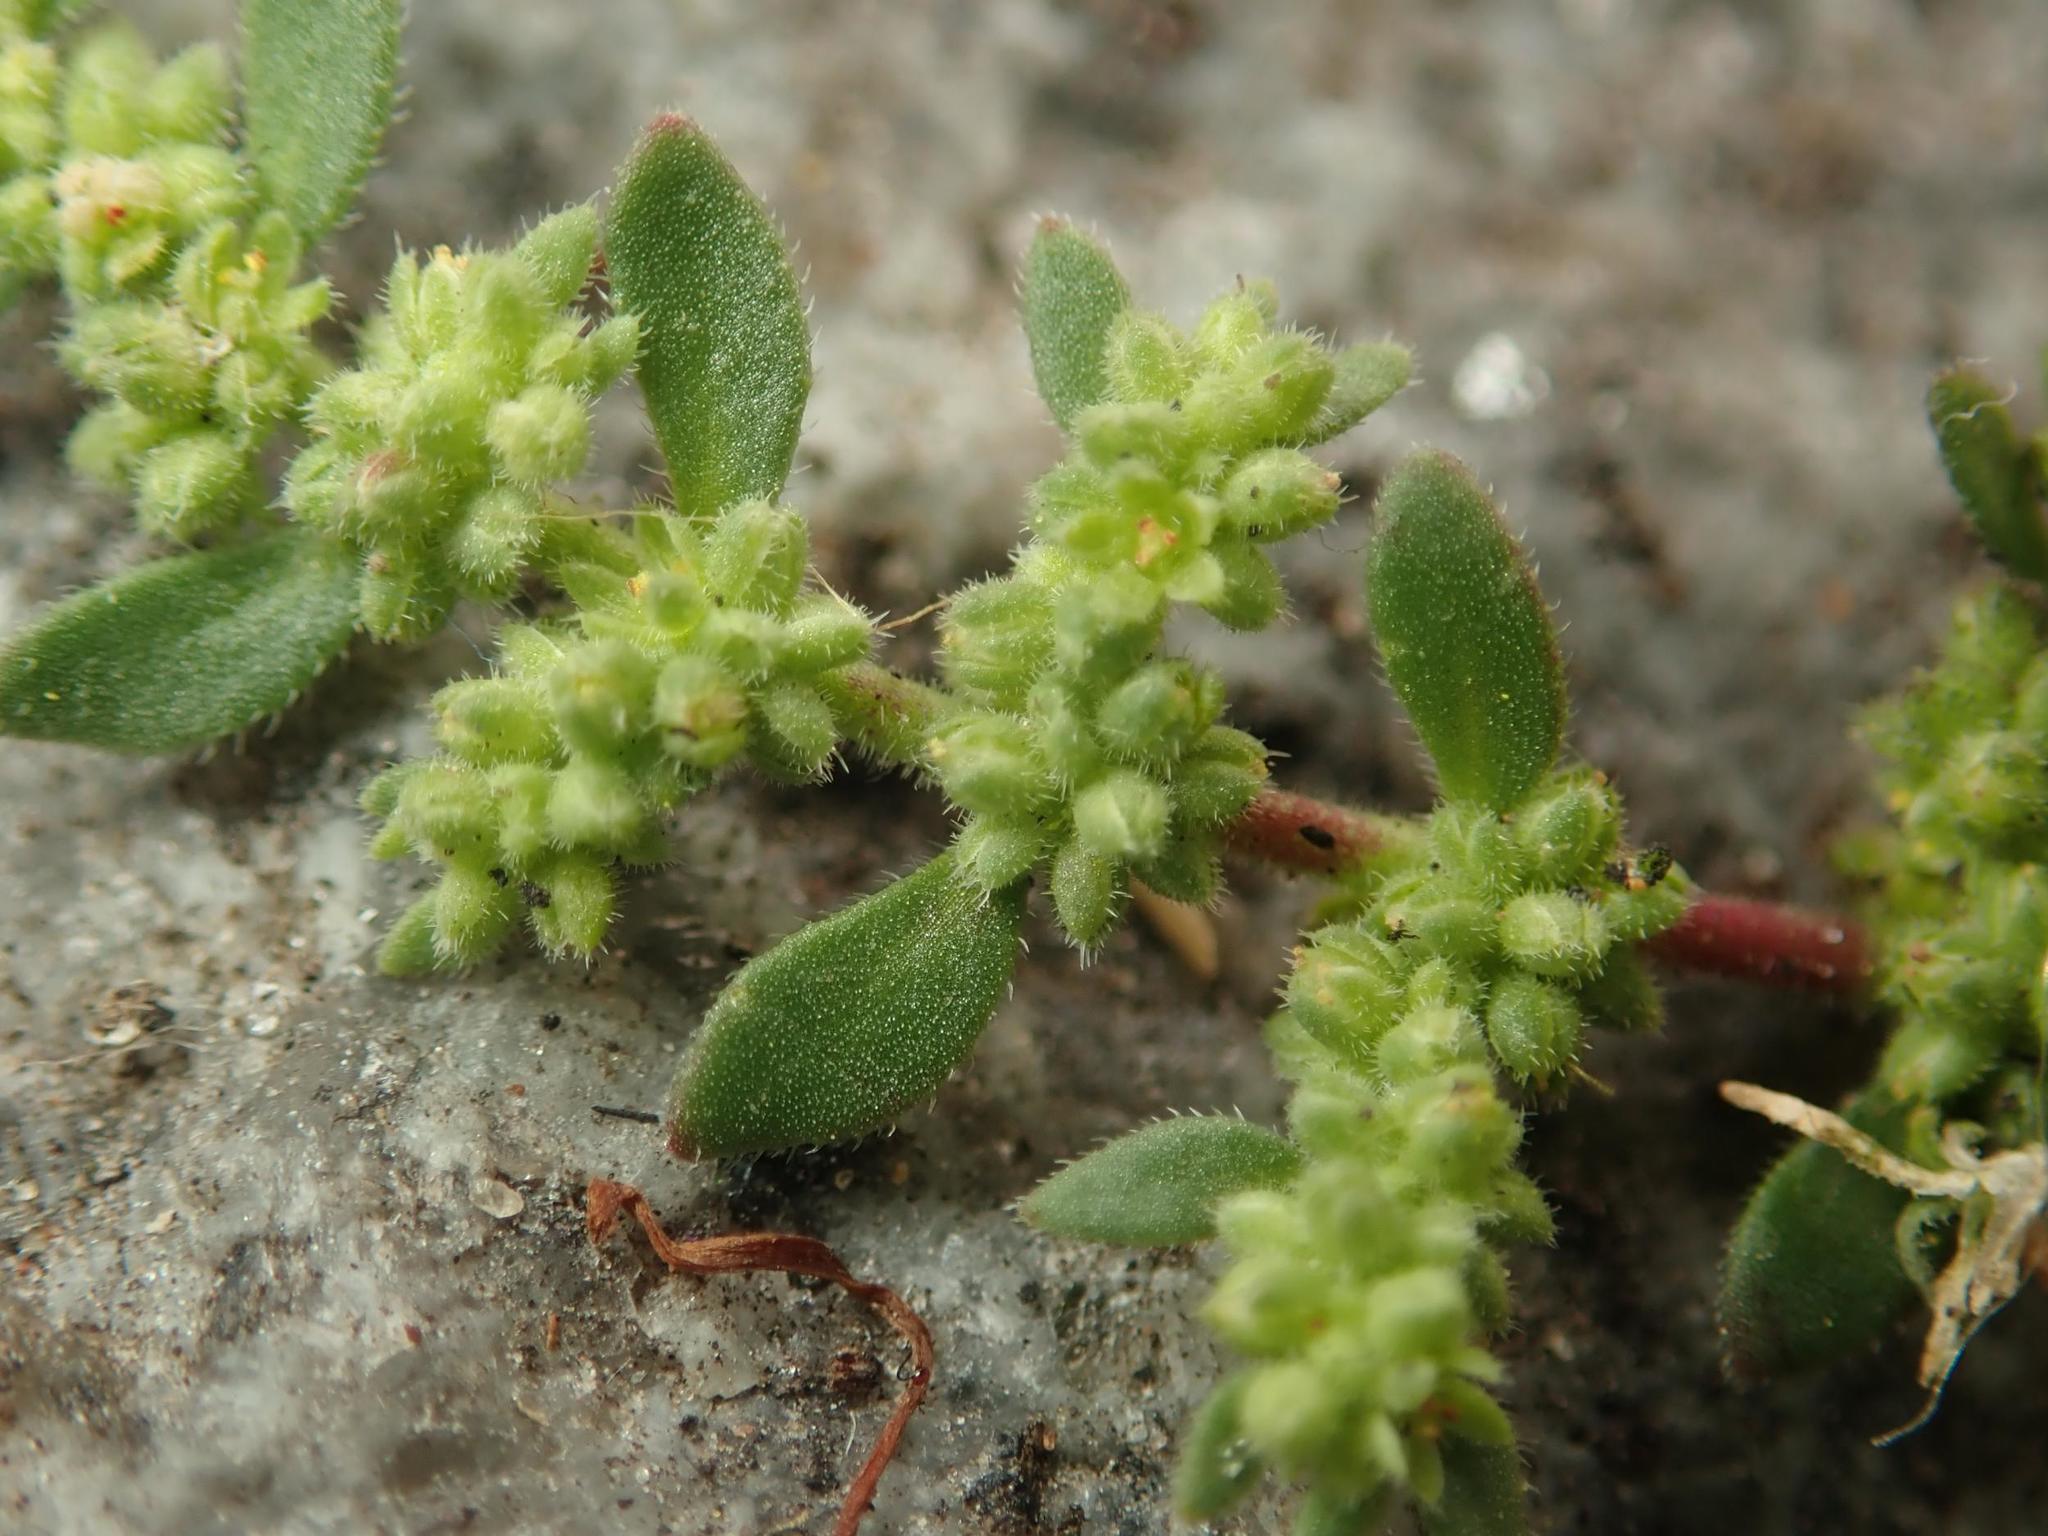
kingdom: Plantae
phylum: Tracheophyta
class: Magnoliopsida
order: Caryophyllales
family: Caryophyllaceae
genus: Herniaria
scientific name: Herniaria hirsuta
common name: Hairy rupturewort
